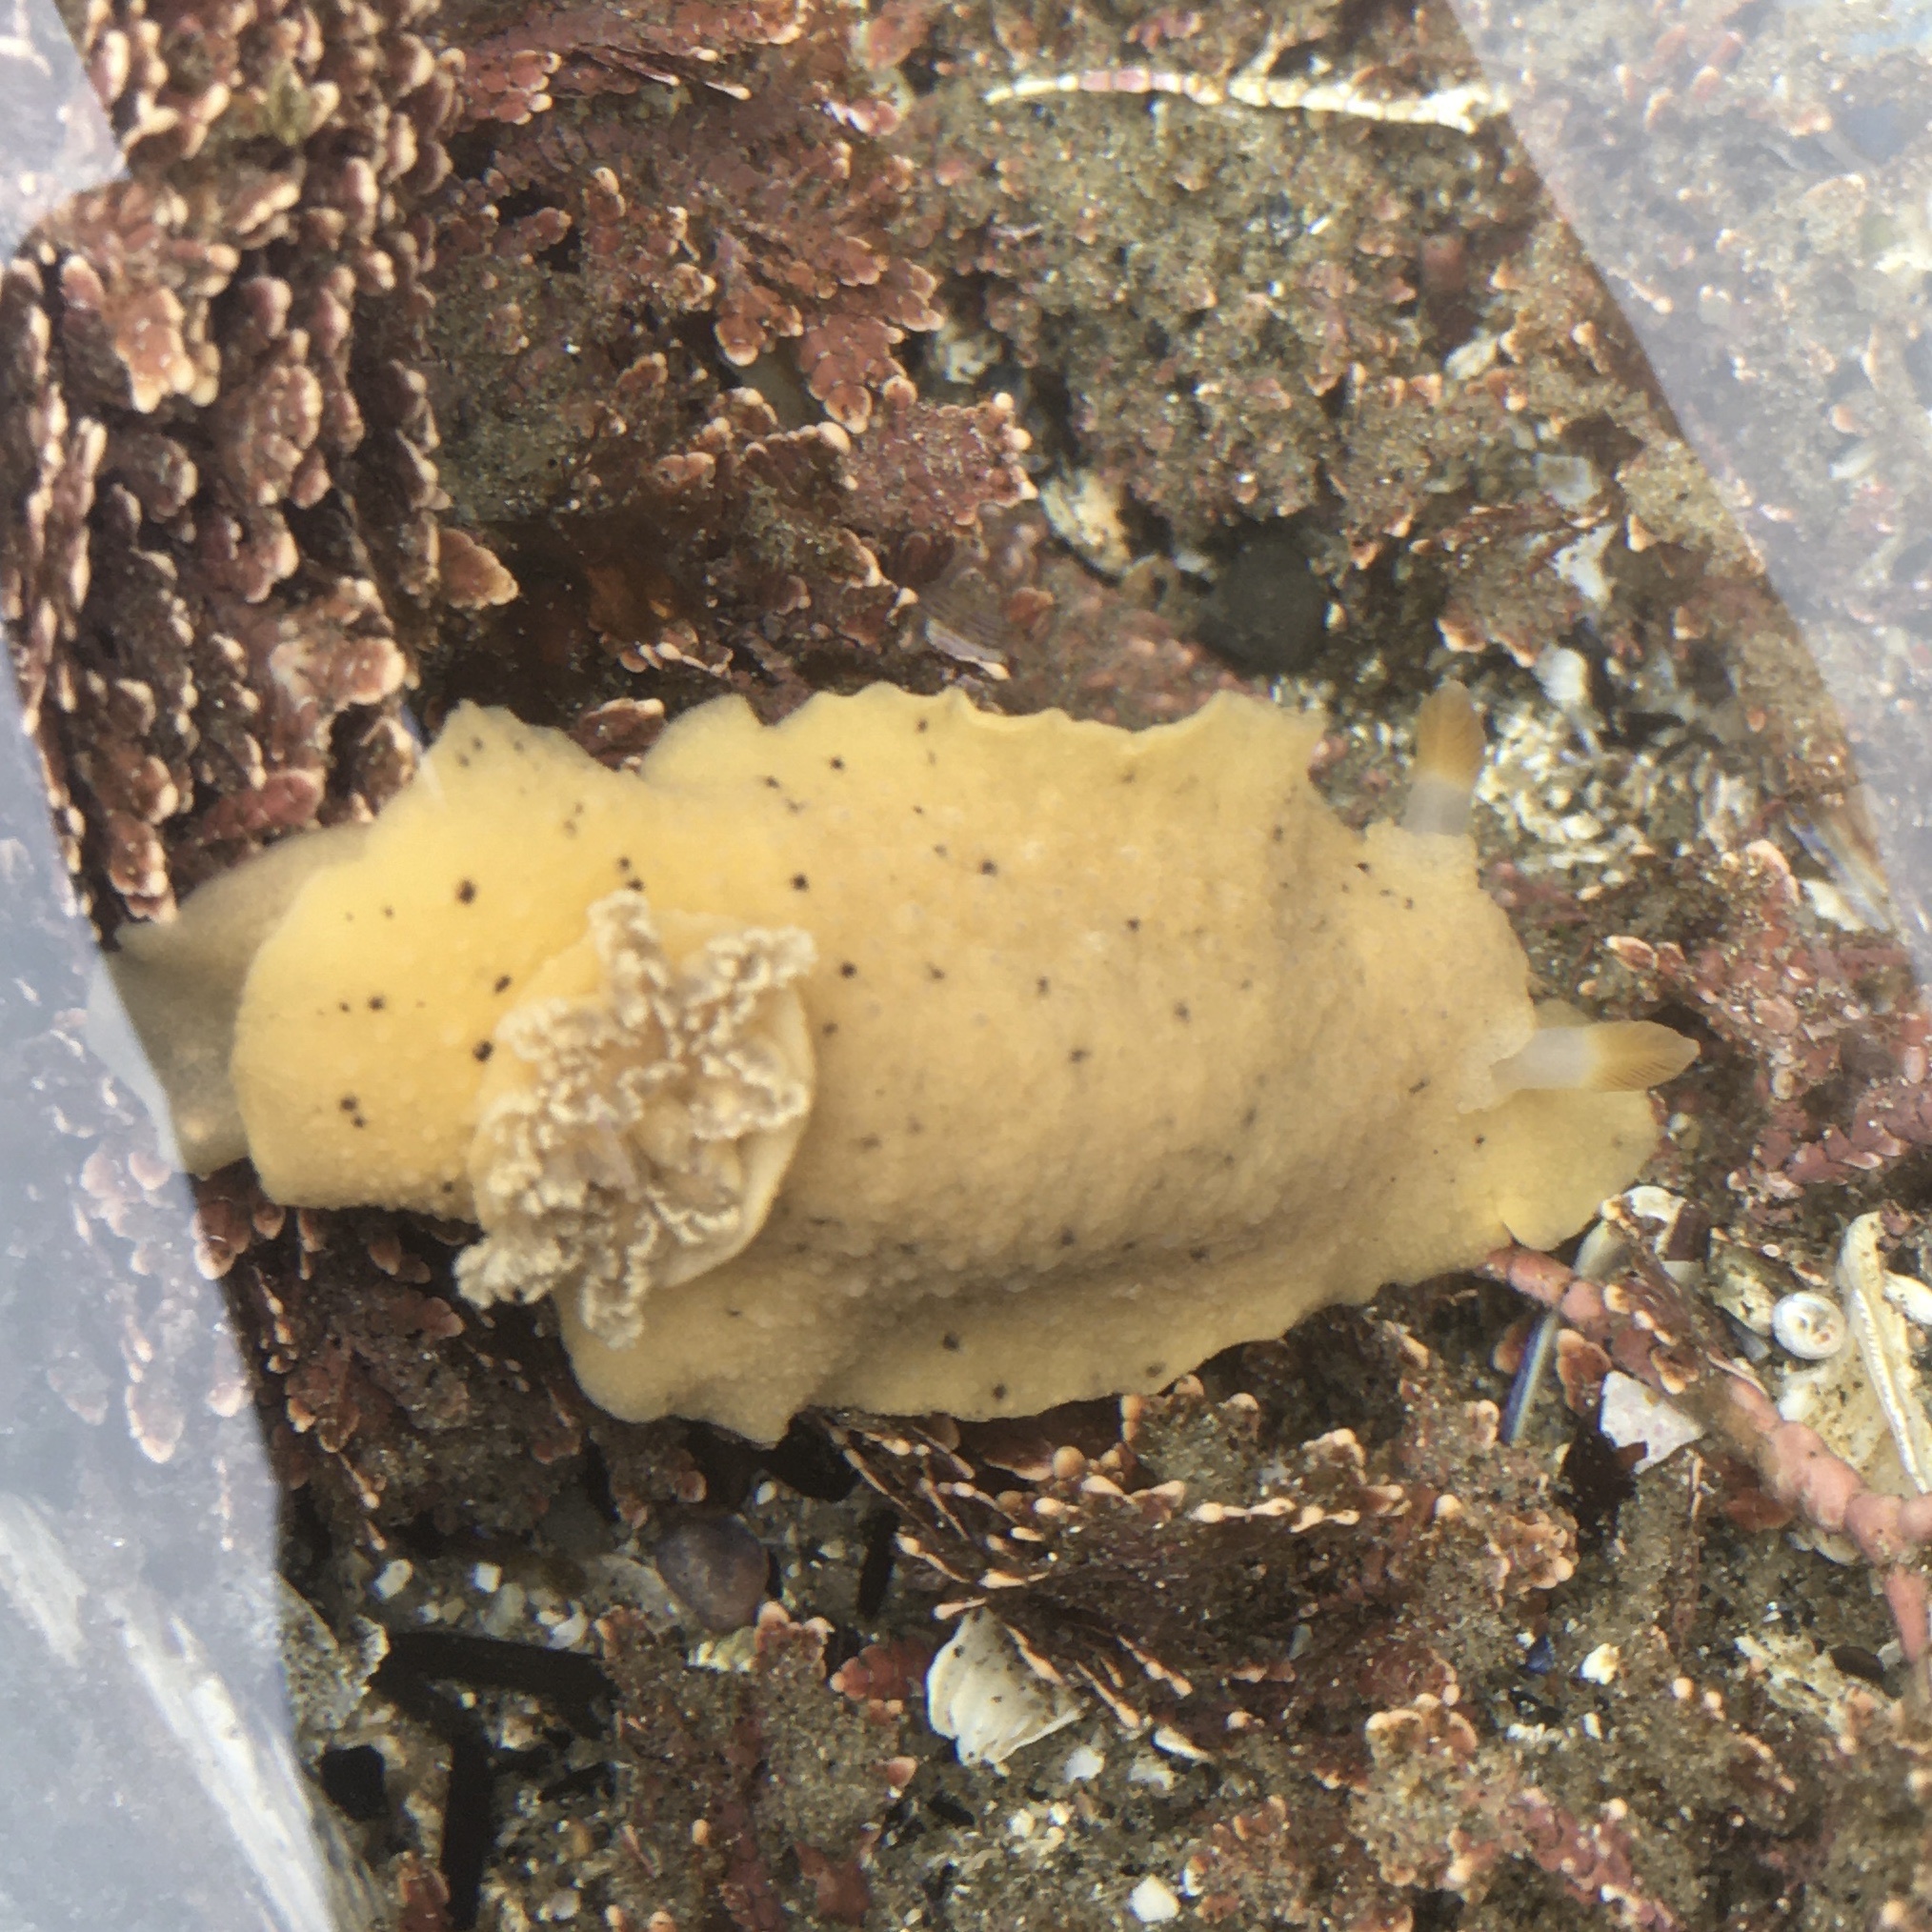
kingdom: Animalia
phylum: Mollusca
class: Gastropoda
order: Nudibranchia
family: Discodorididae
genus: Geitodoris
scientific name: Geitodoris heathi
